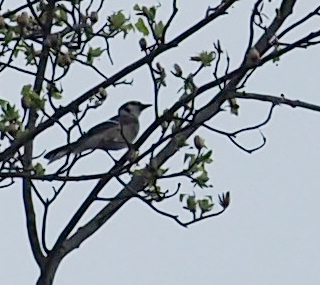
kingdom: Animalia
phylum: Chordata
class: Aves
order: Passeriformes
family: Corvidae
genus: Cyanocitta
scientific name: Cyanocitta cristata
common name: Blue jay
